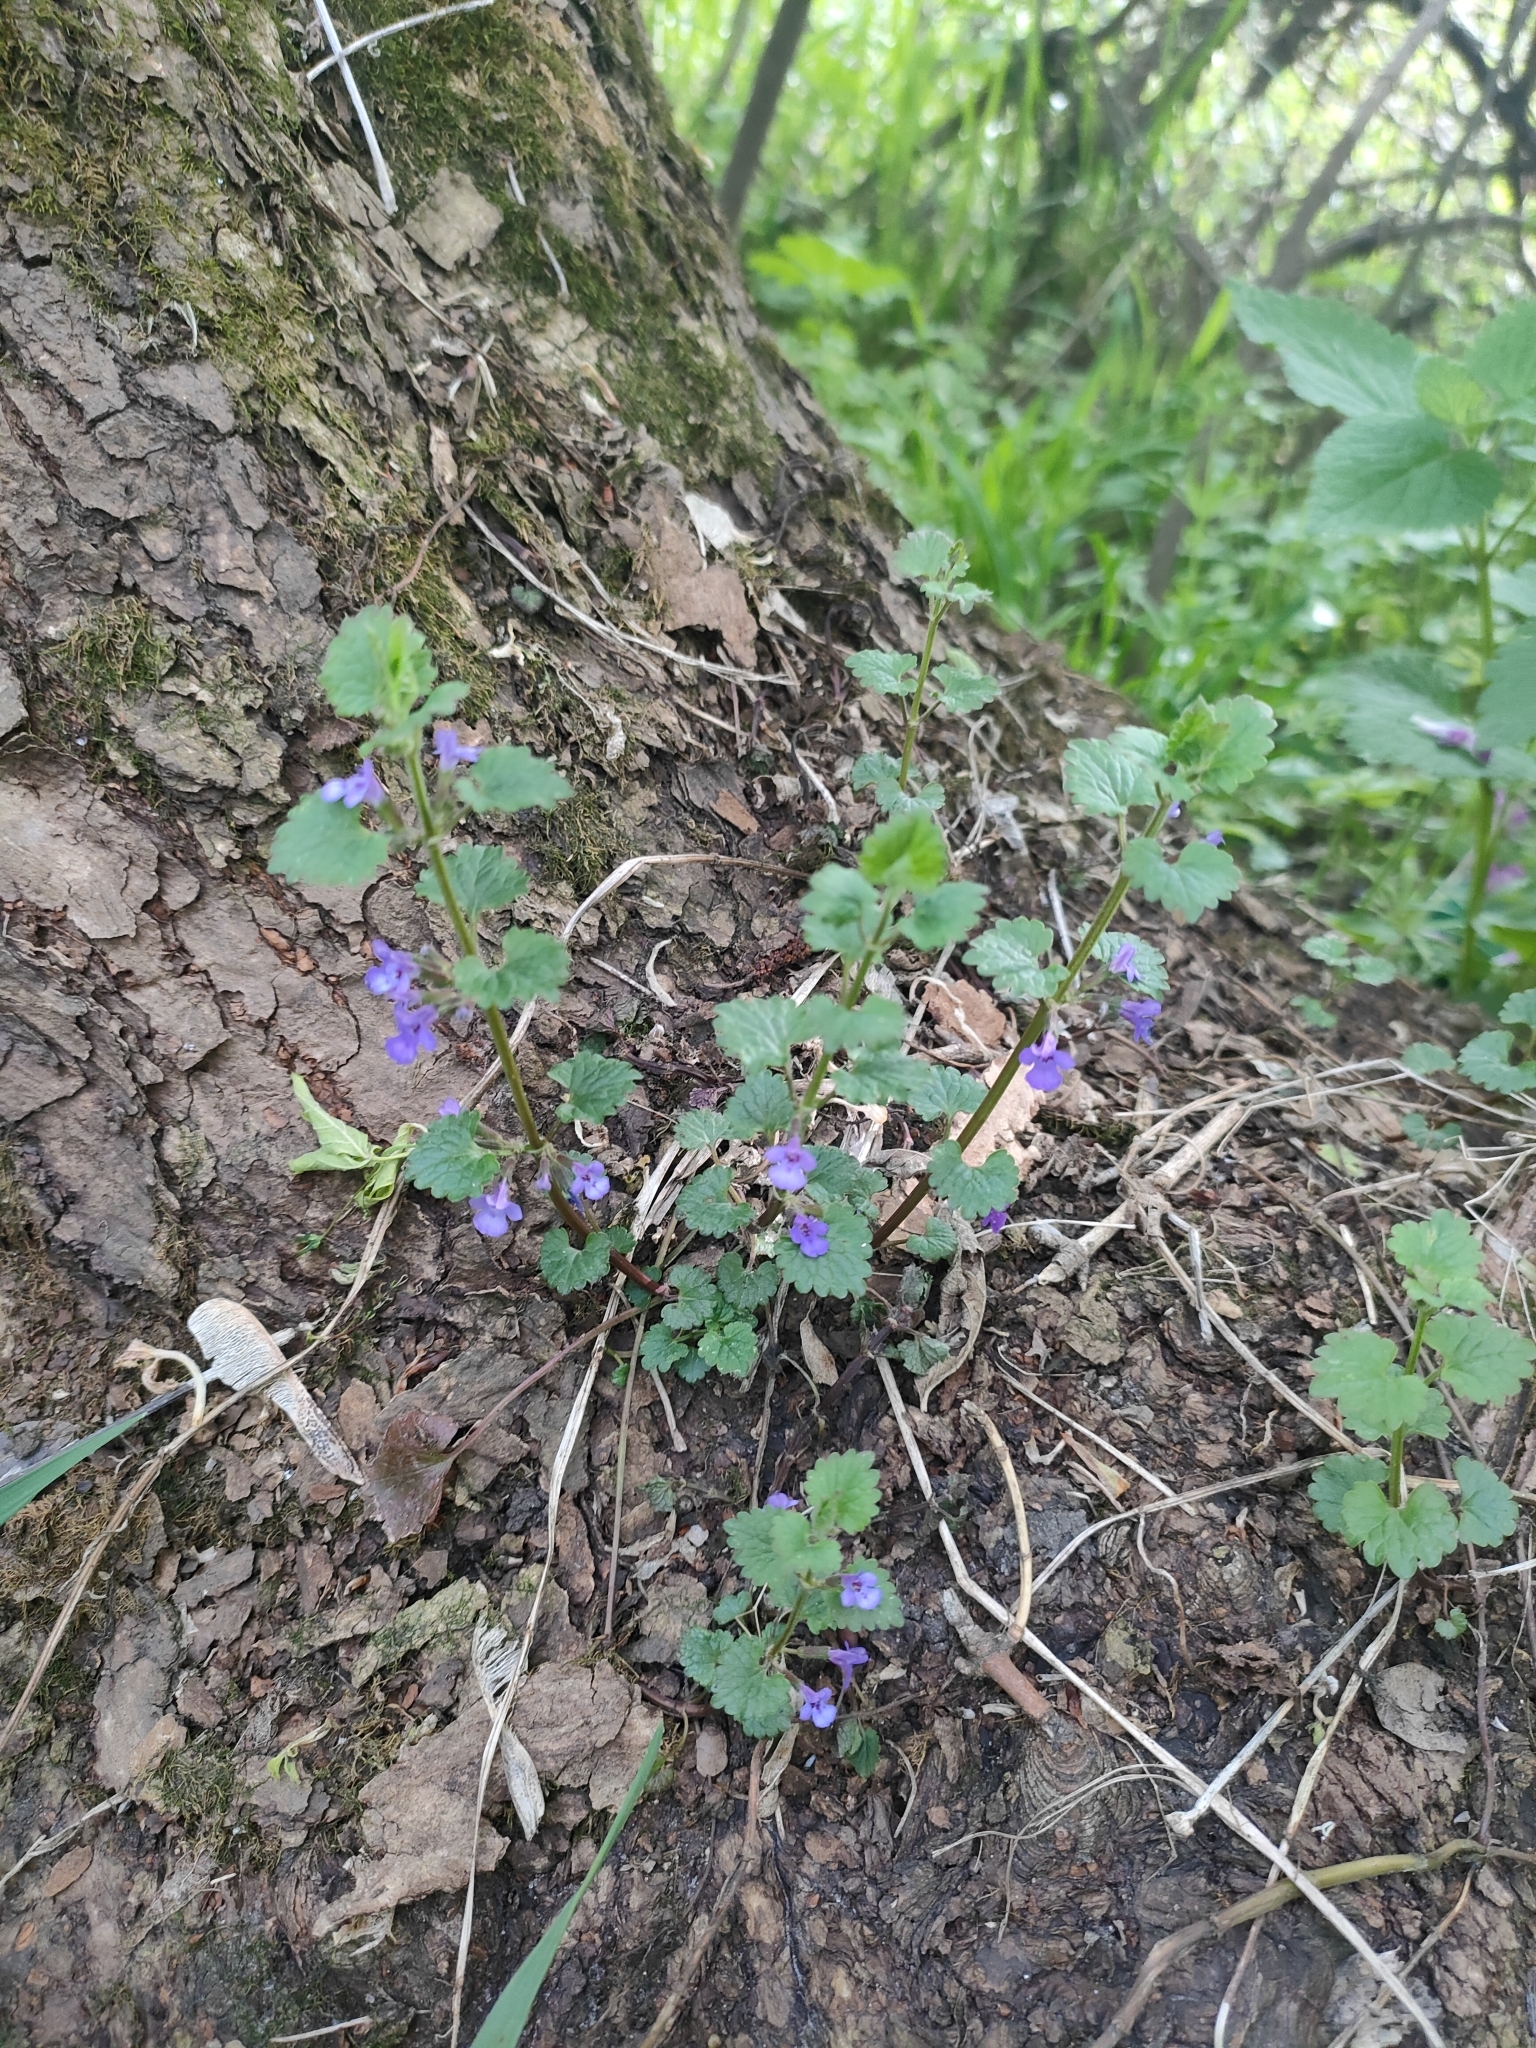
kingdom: Plantae
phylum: Tracheophyta
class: Magnoliopsida
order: Lamiales
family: Lamiaceae
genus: Glechoma
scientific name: Glechoma hederacea
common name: Ground ivy
